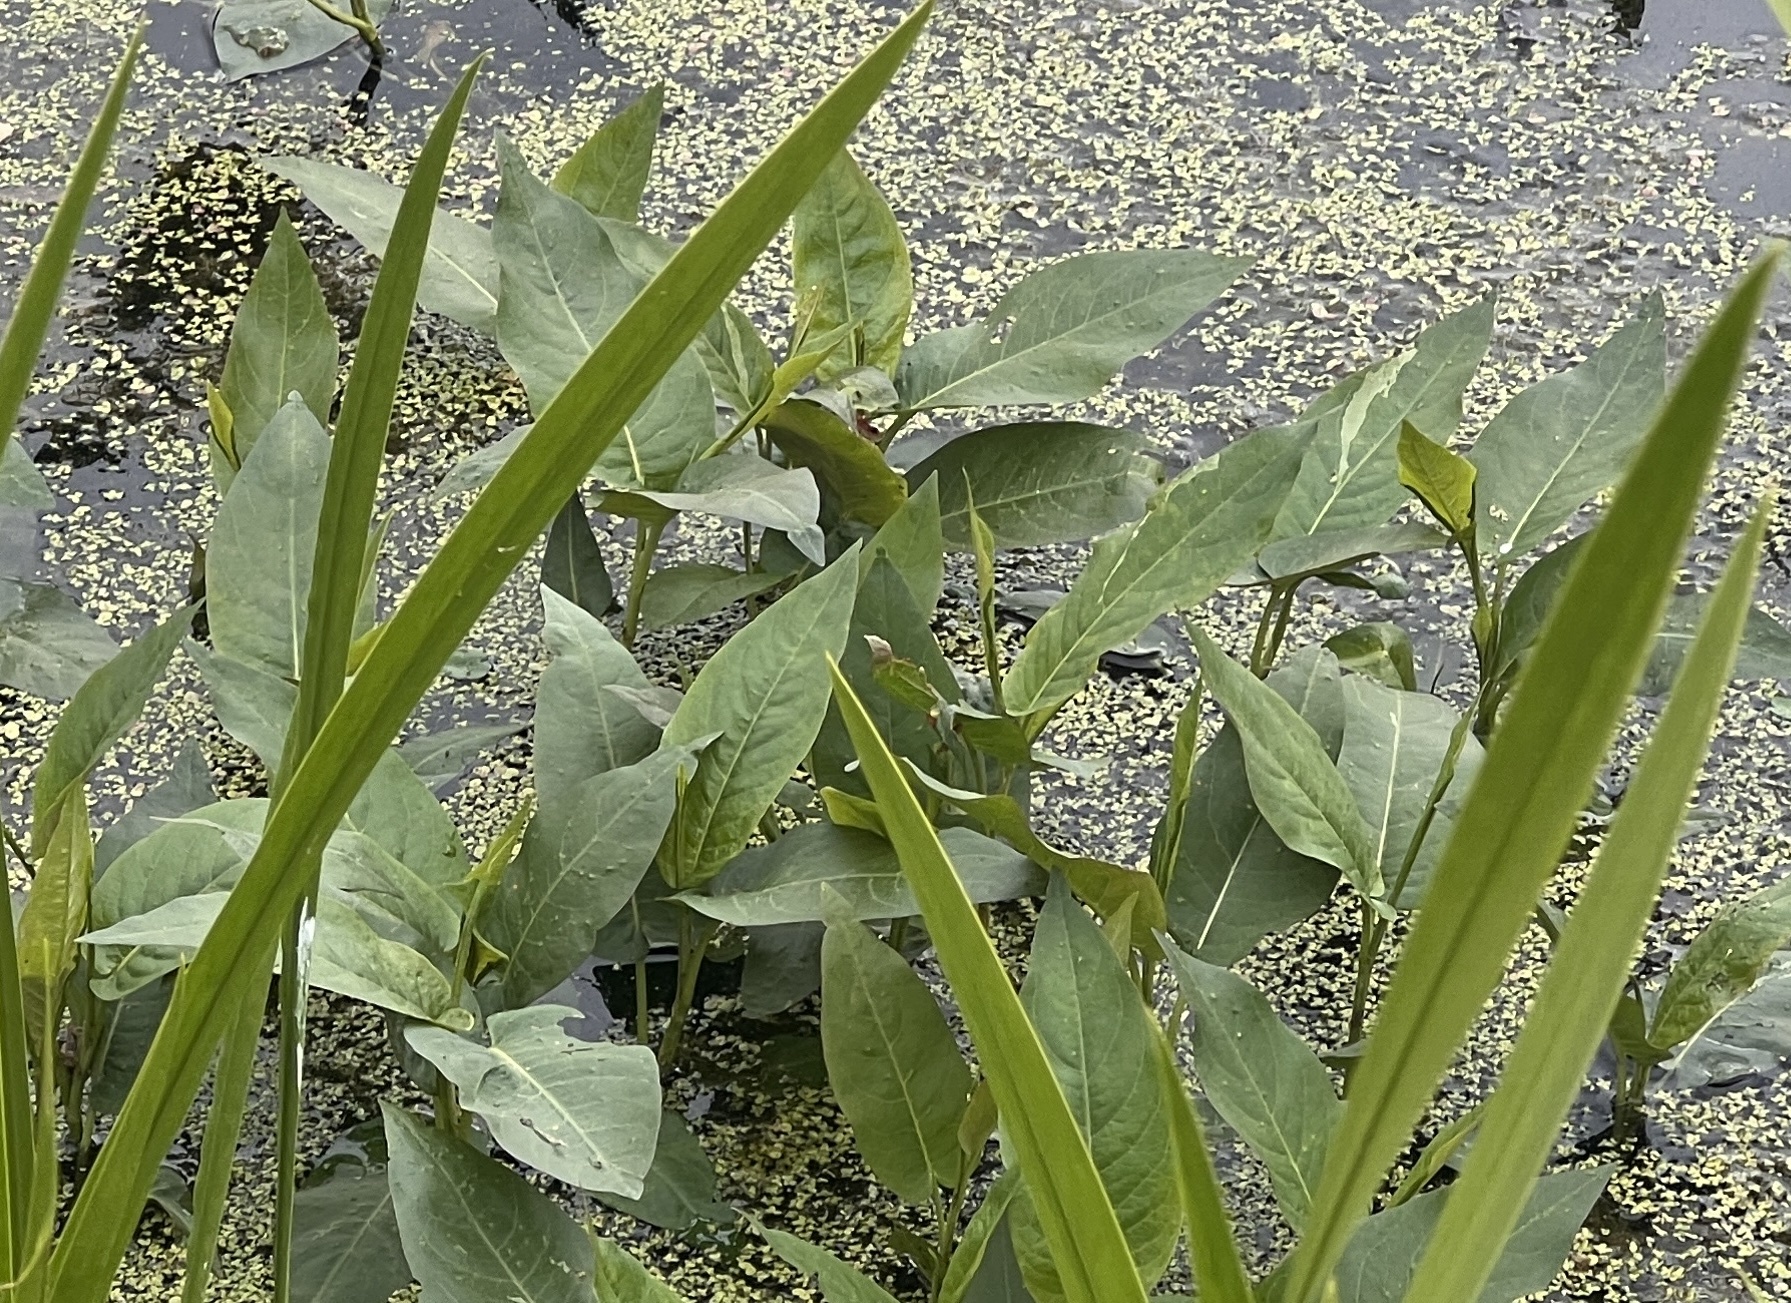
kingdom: Plantae
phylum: Tracheophyta
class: Magnoliopsida
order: Caryophyllales
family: Polygonaceae
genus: Persicaria
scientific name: Persicaria amphibia
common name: Amphibious bistort
